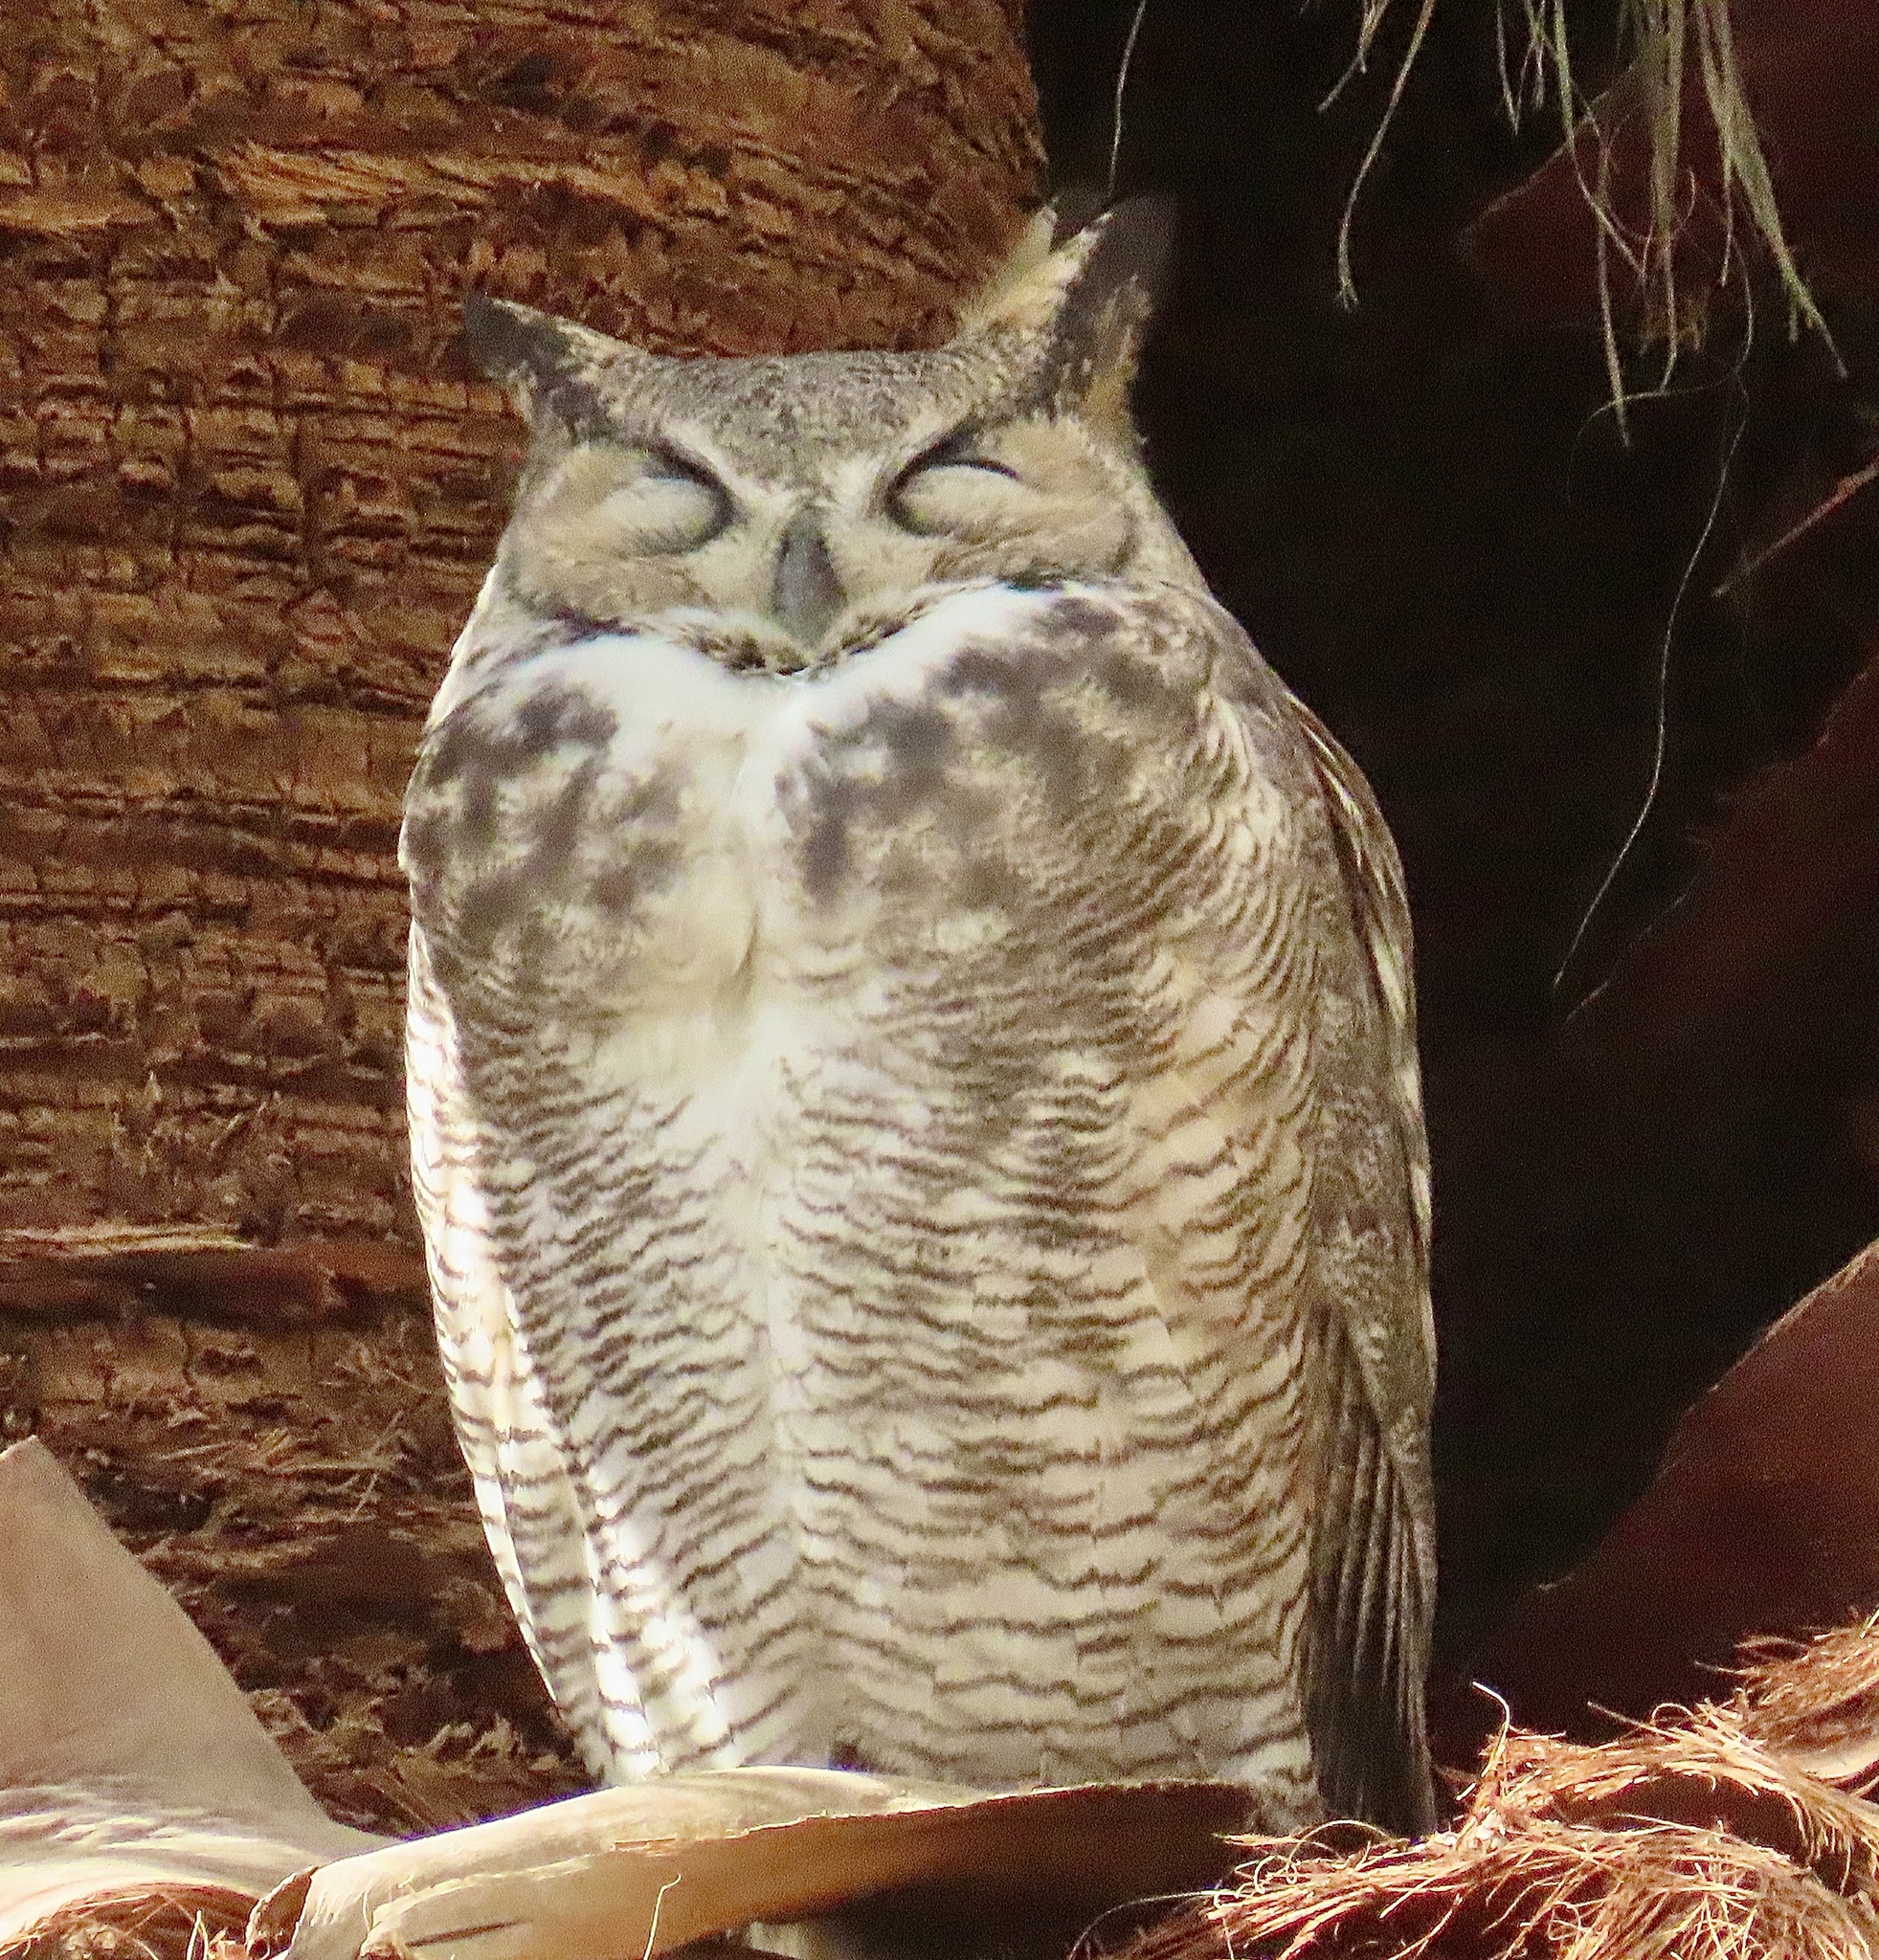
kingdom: Animalia
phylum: Chordata
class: Aves
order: Strigiformes
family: Strigidae
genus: Bubo
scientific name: Bubo virginianus
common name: Great horned owl
